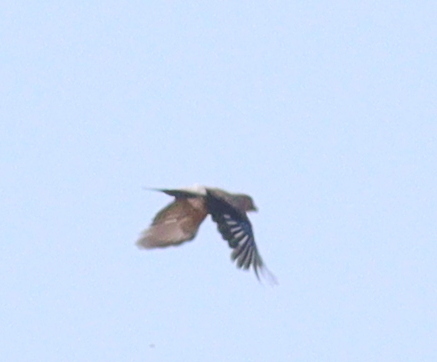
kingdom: Animalia
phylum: Chordata
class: Aves
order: Passeriformes
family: Corvidae
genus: Garrulus
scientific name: Garrulus glandarius
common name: Eurasian jay
